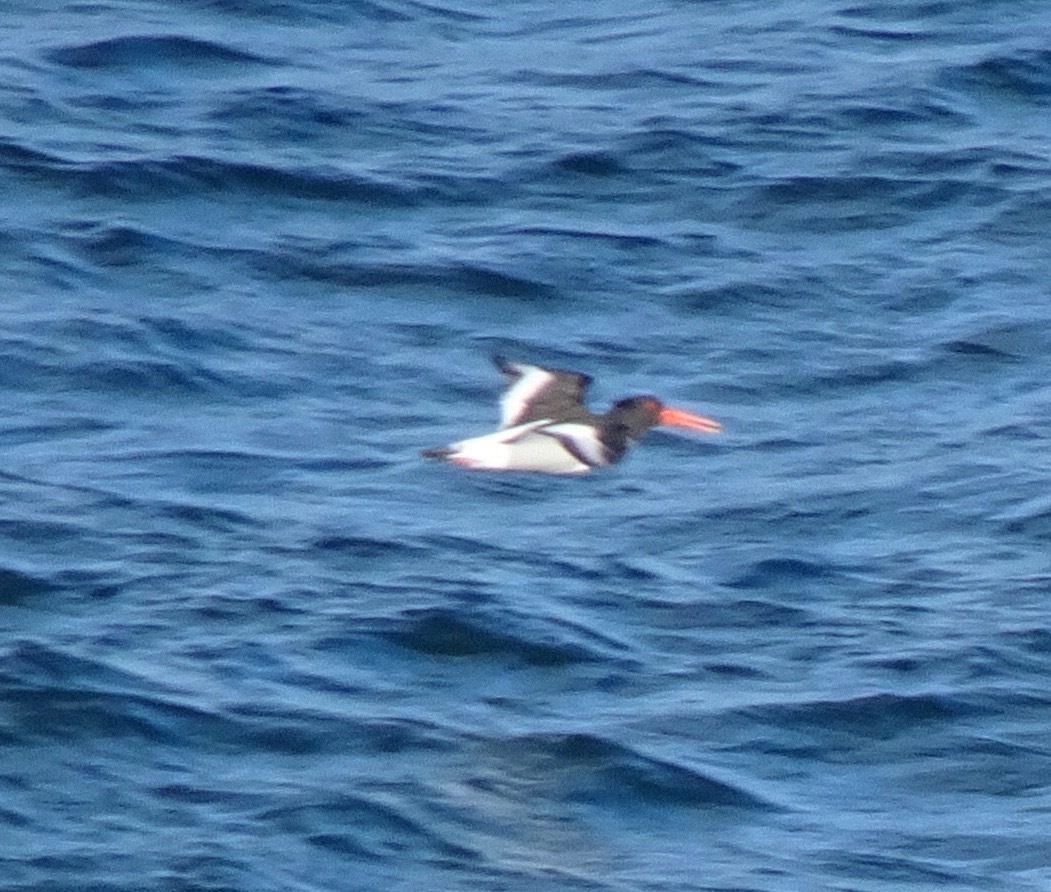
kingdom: Animalia
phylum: Chordata
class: Aves
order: Charadriiformes
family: Haematopodidae
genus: Haematopus
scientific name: Haematopus ostralegus
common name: Eurasian oystercatcher
